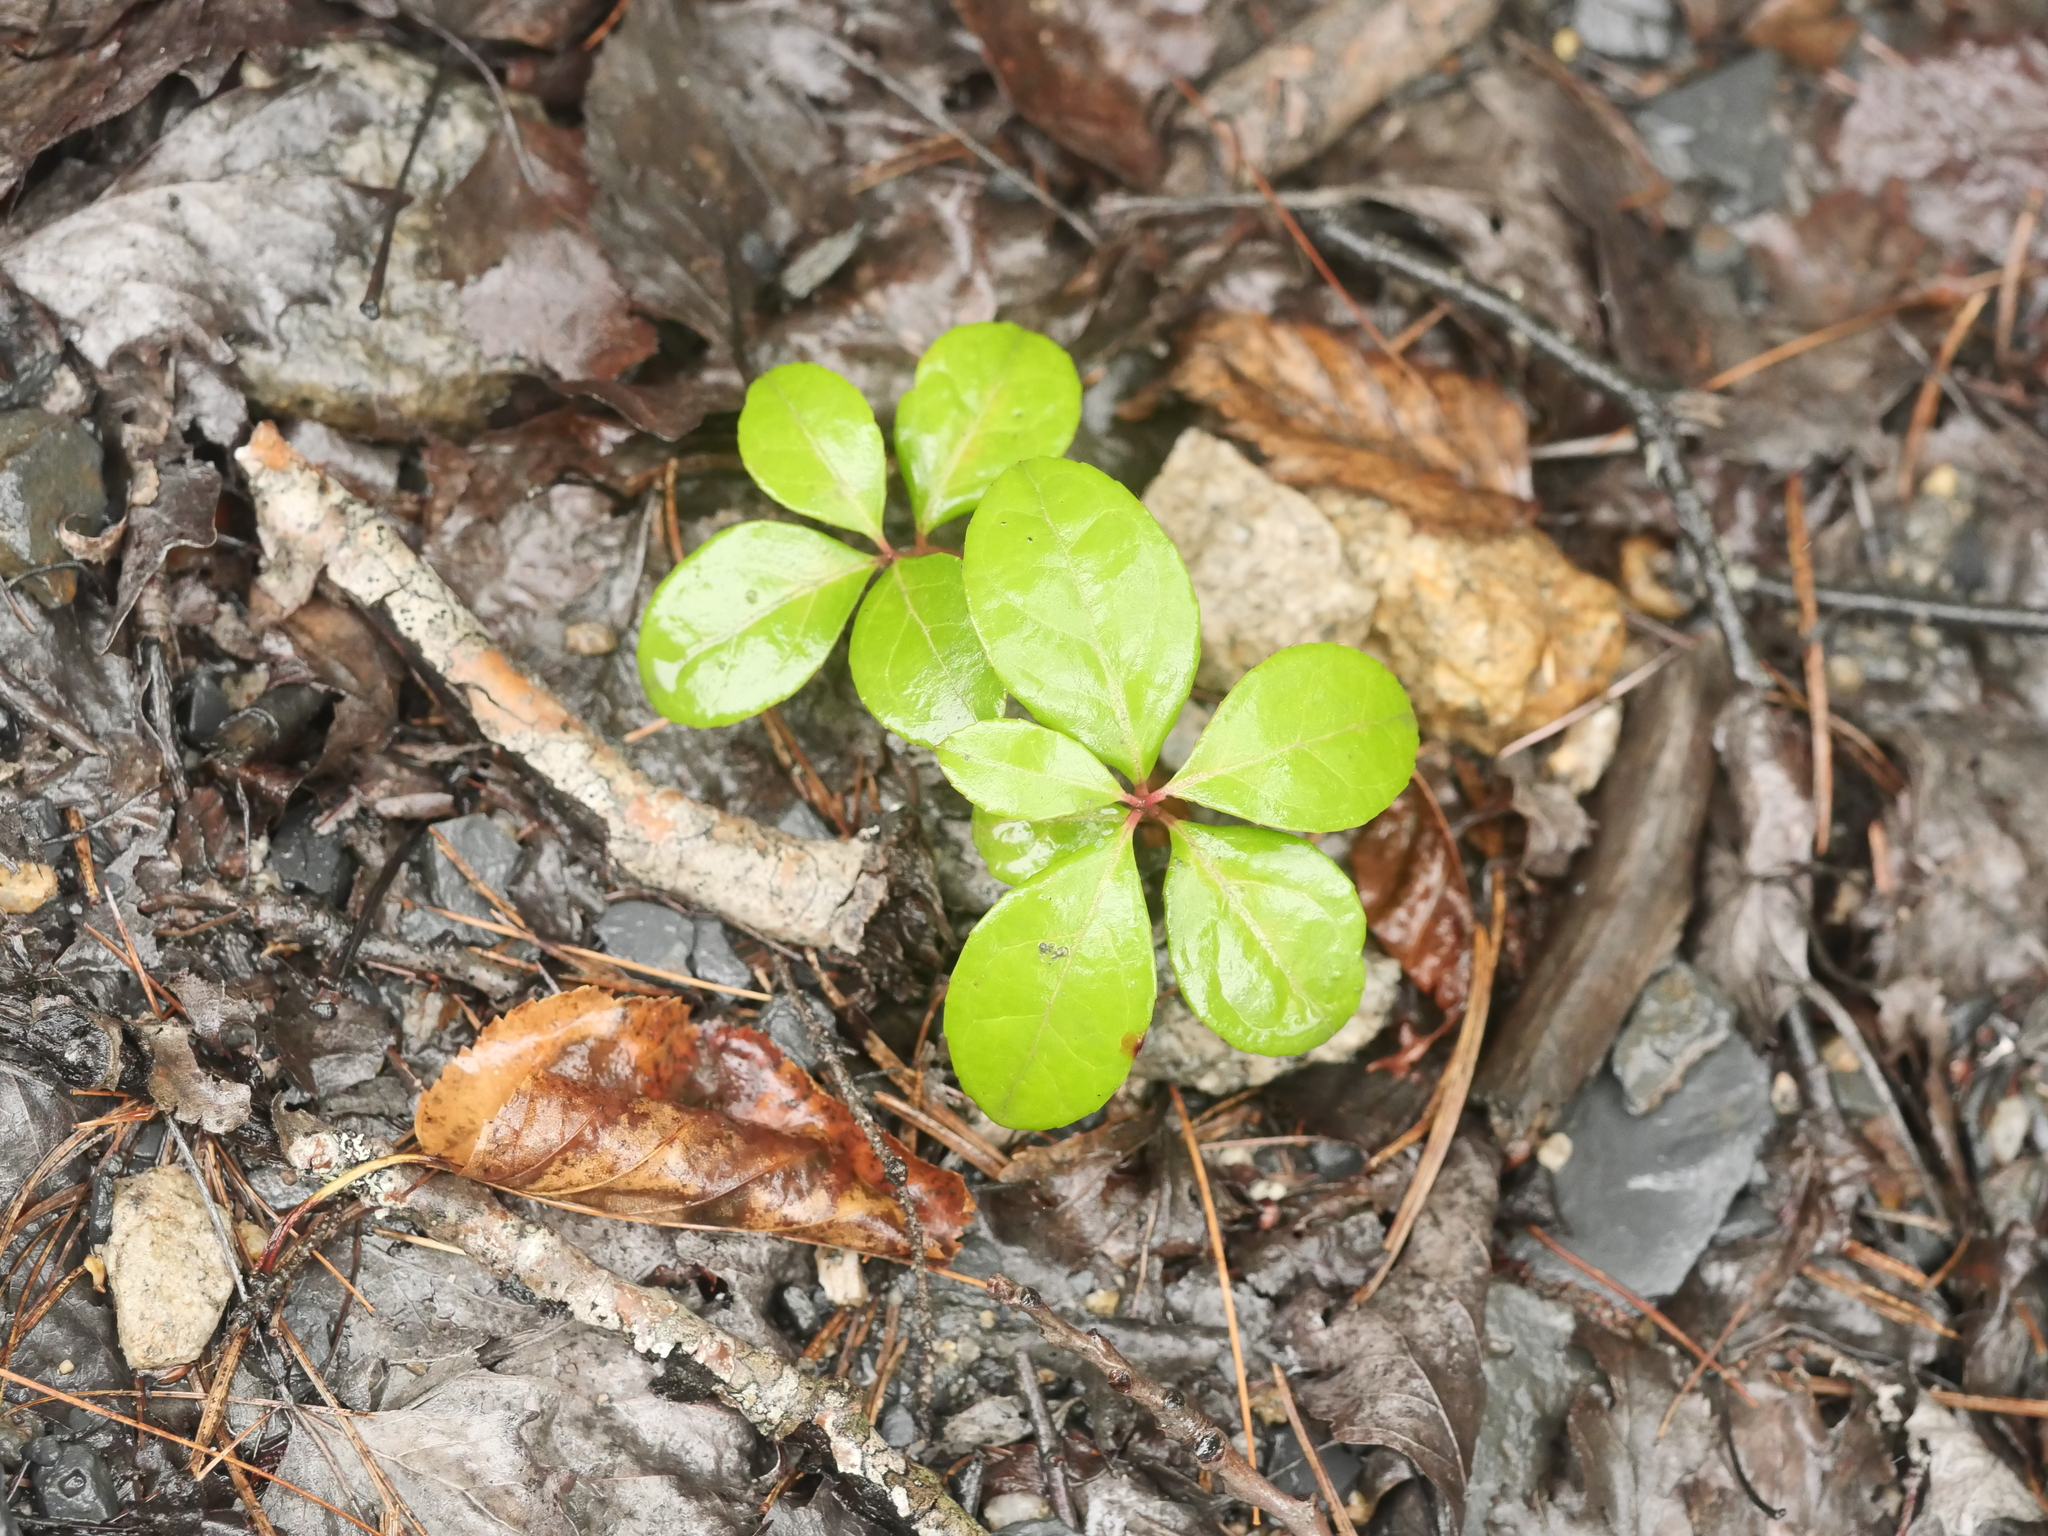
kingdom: Plantae
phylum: Tracheophyta
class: Magnoliopsida
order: Ericales
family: Ericaceae
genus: Gaultheria
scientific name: Gaultheria procumbens
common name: Checkerberry
